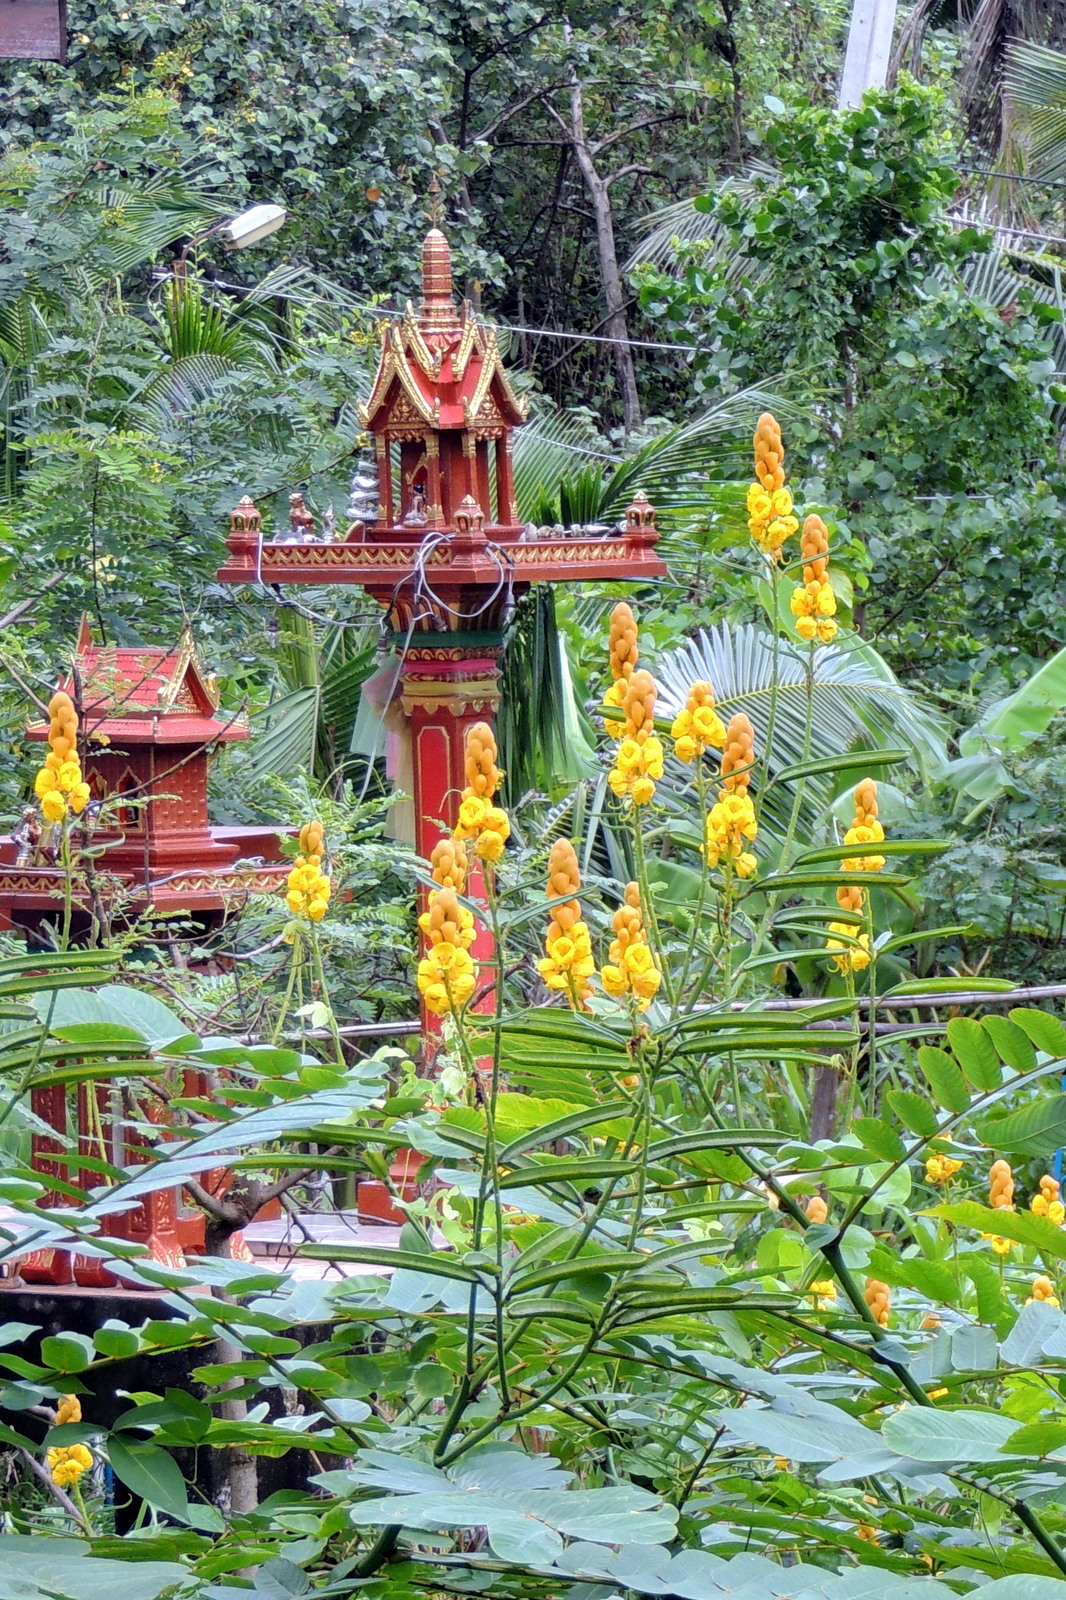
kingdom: Plantae
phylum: Tracheophyta
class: Magnoliopsida
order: Fabales
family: Fabaceae
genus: Senna
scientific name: Senna alata
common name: Emperor's candlesticks
